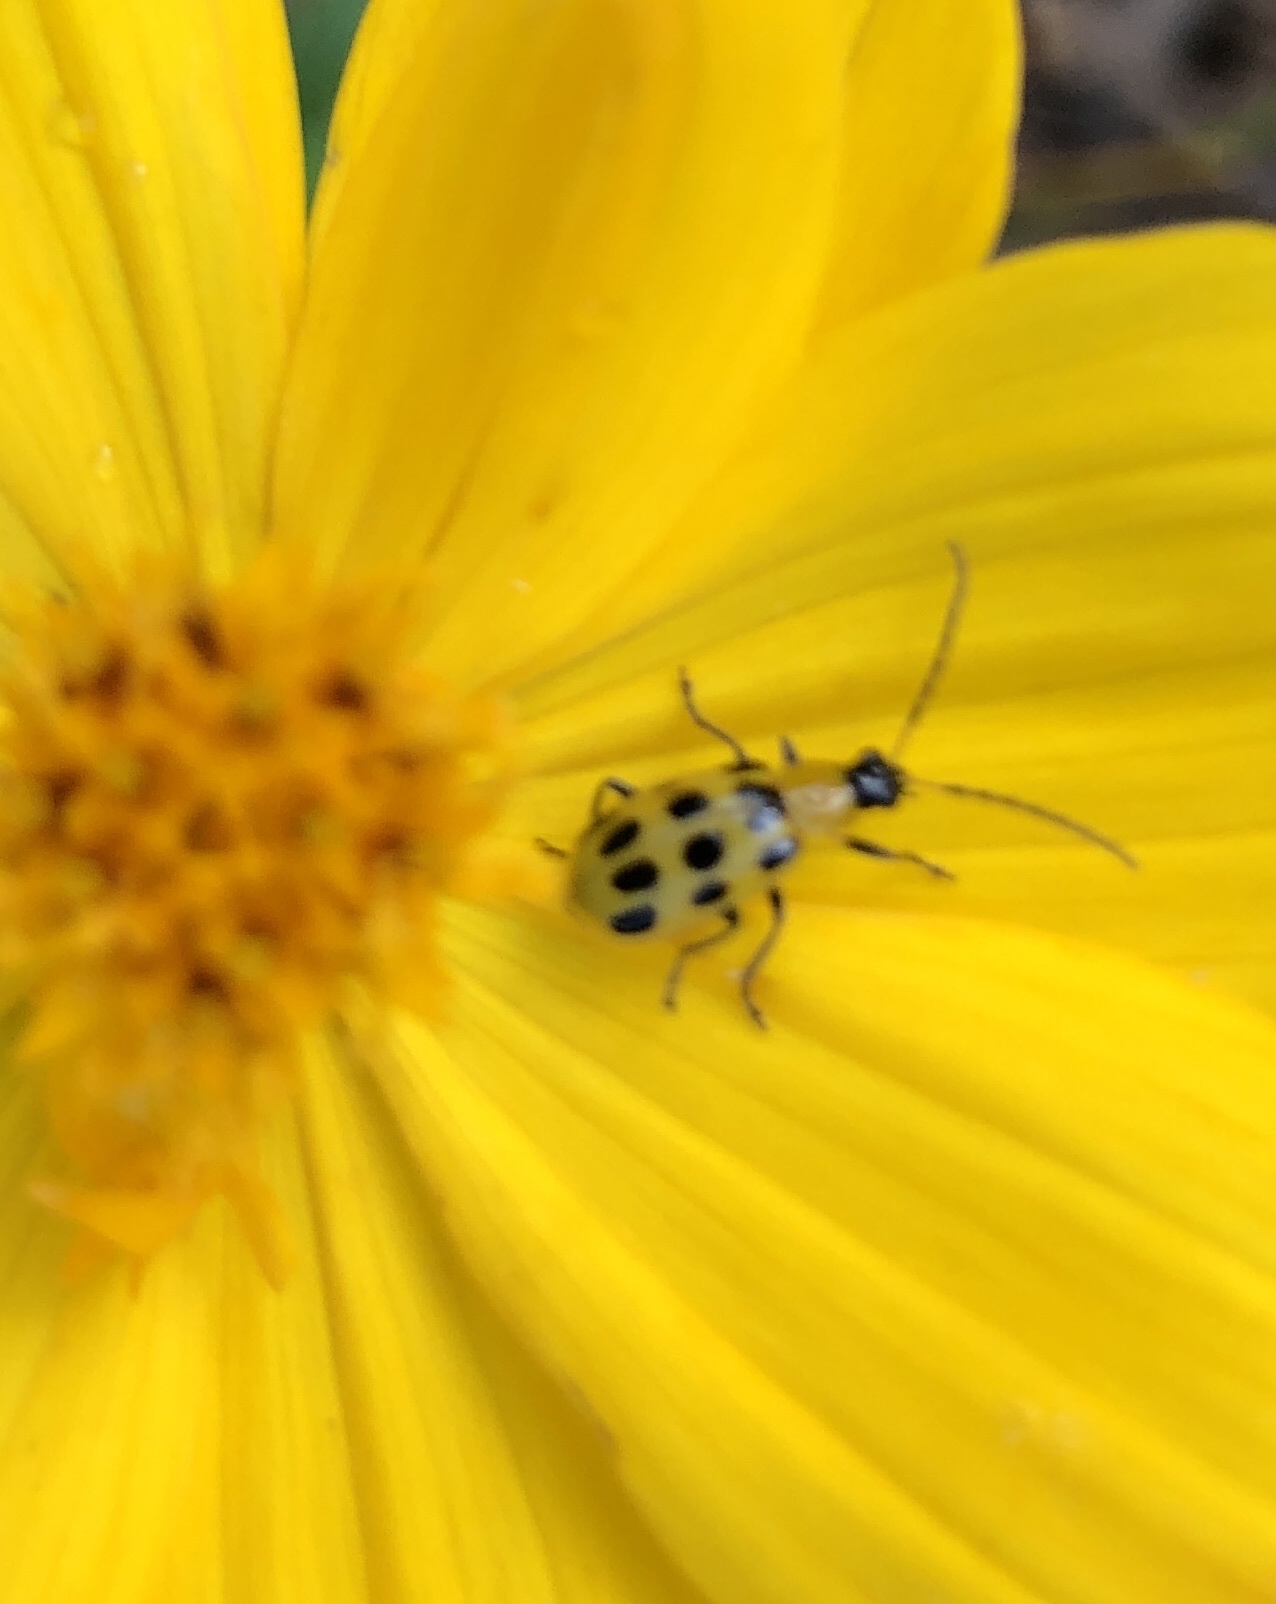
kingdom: Animalia
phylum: Arthropoda
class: Insecta
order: Coleoptera
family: Chrysomelidae
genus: Diabrotica
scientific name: Diabrotica undecimpunctata
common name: Spotted cucumber beetle
